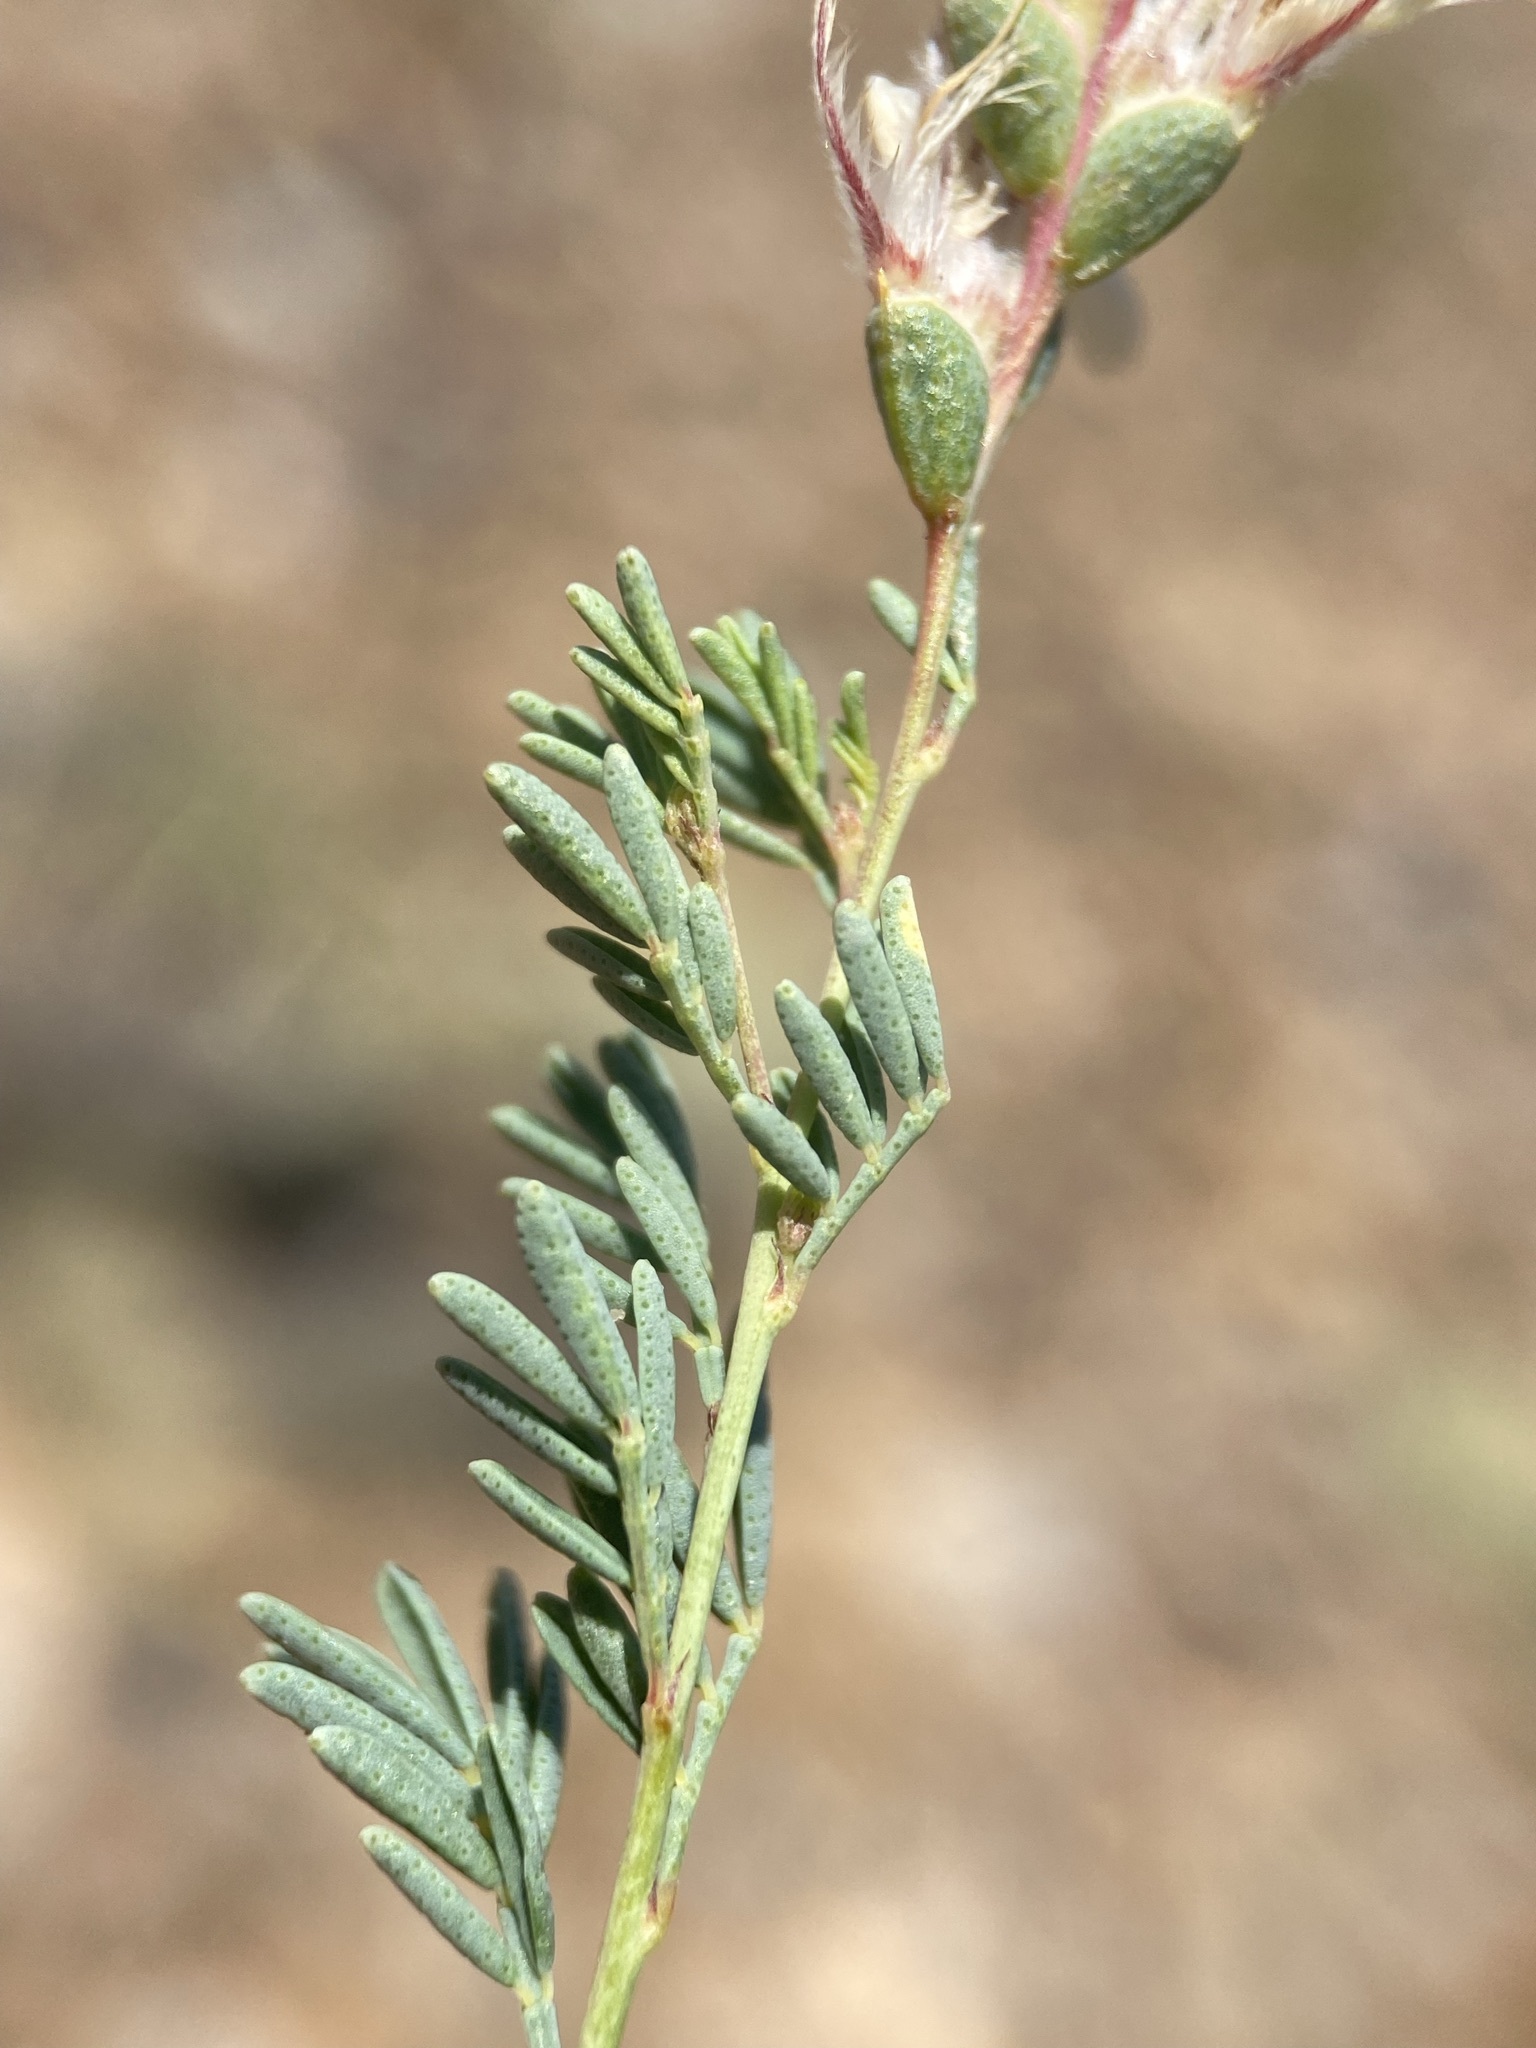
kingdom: Plantae
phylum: Tracheophyta
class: Magnoliopsida
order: Fabales
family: Fabaceae
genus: Dalea
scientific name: Dalea enneandra
